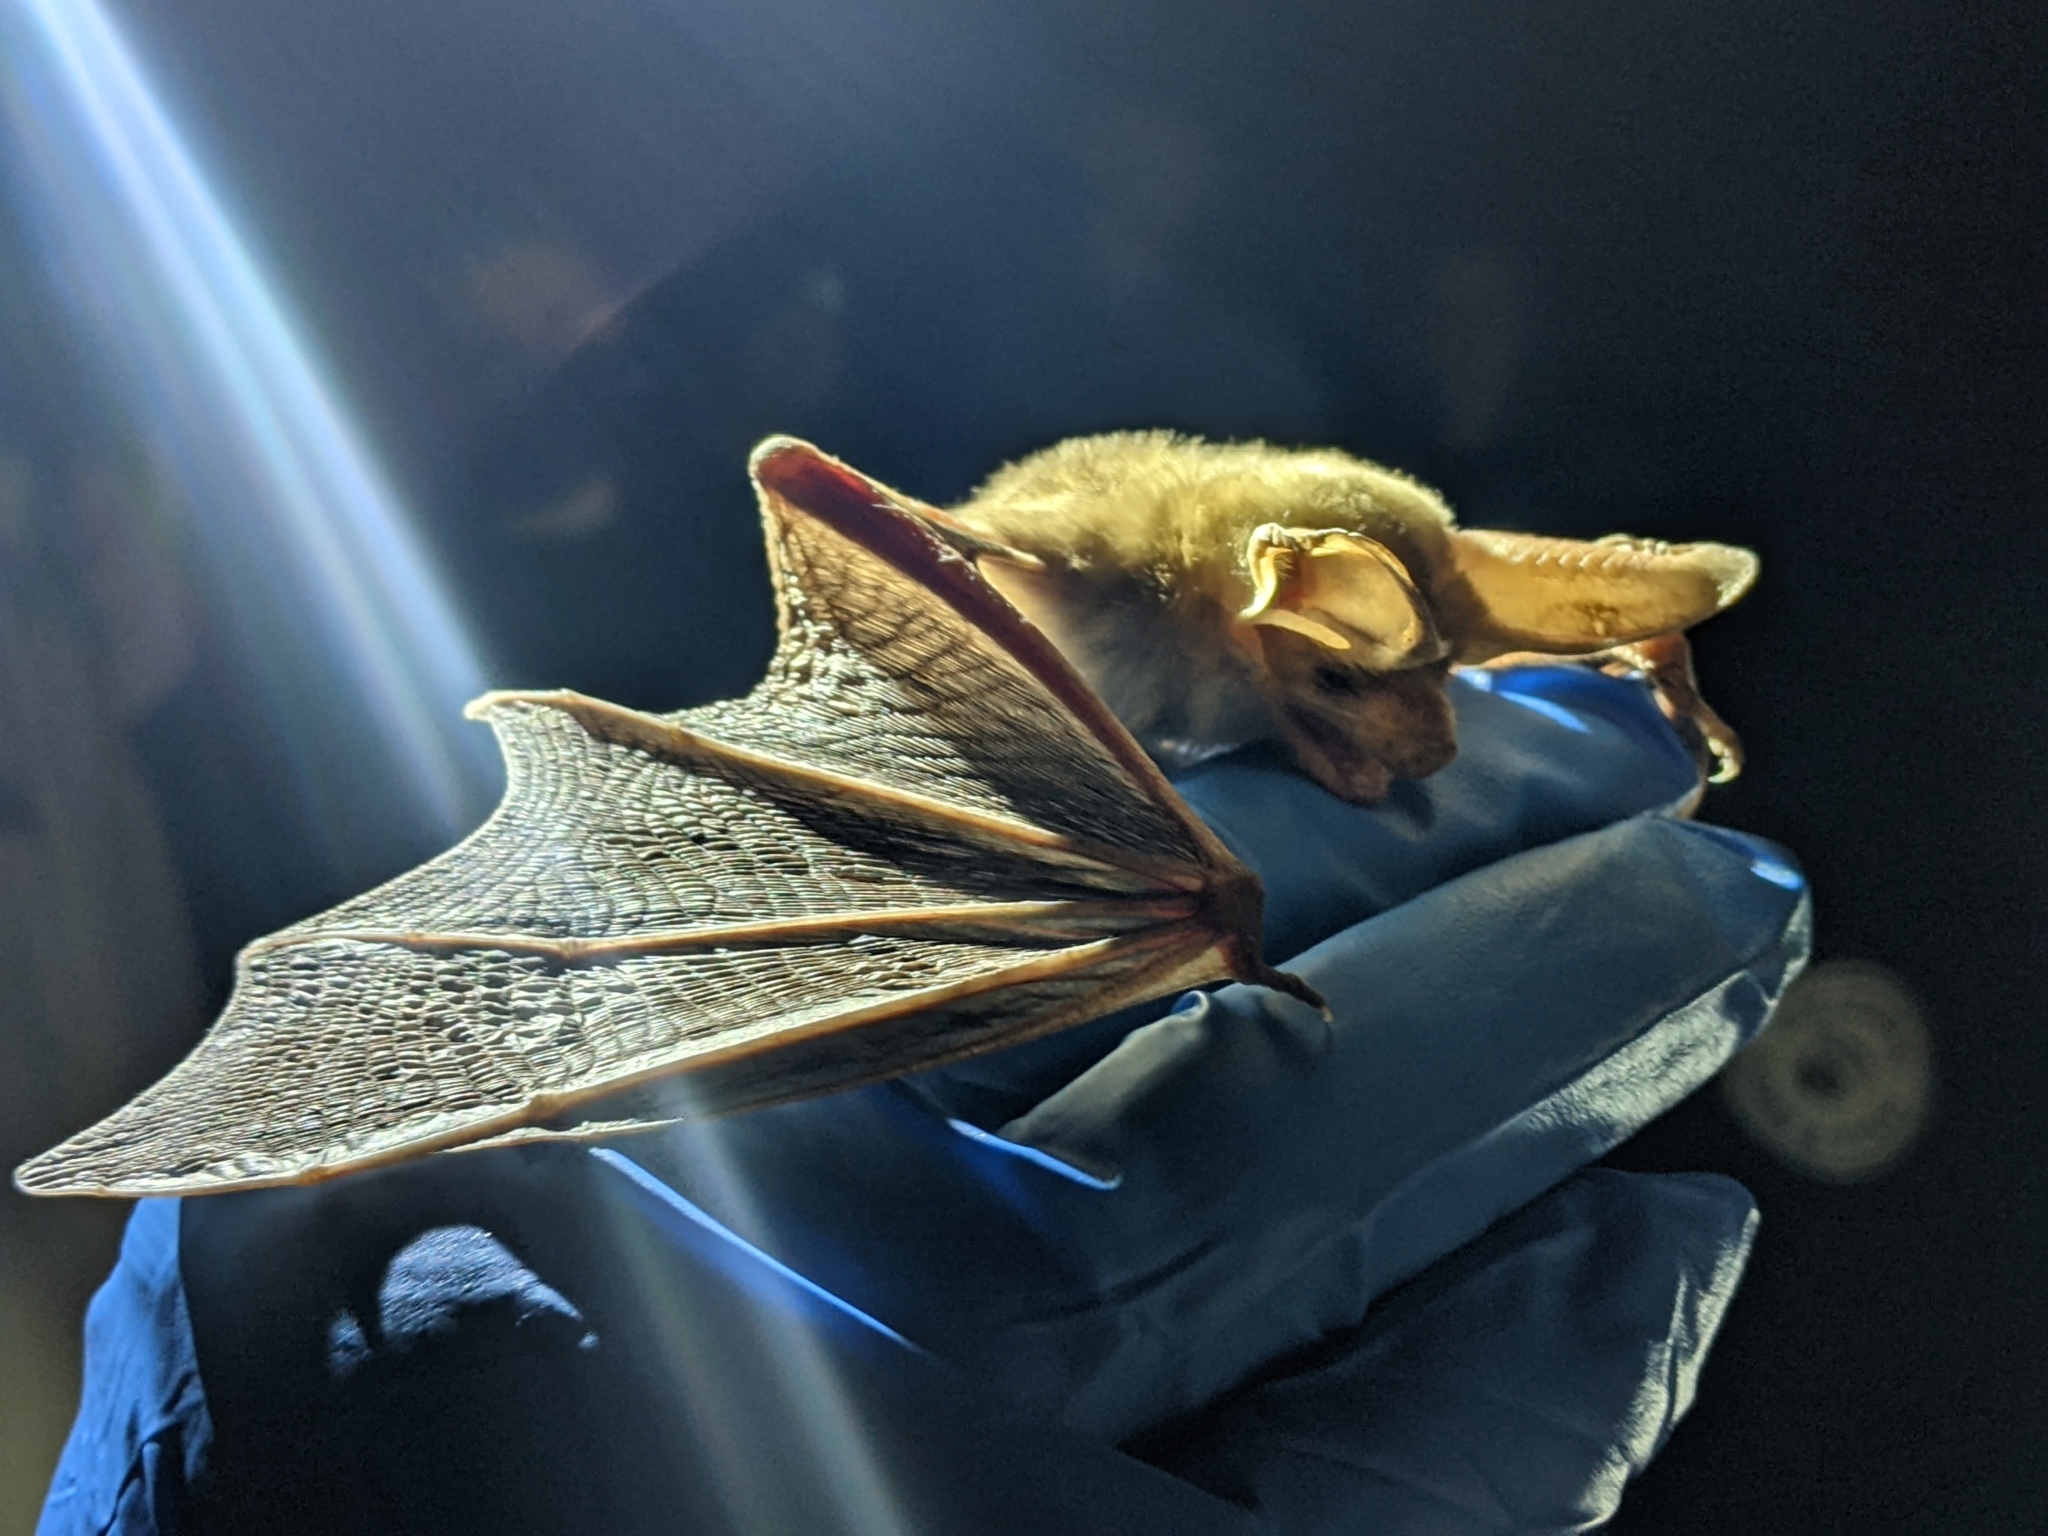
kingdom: Animalia
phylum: Chordata
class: Mammalia
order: Chiroptera
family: Vespertilionidae
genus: Antrozous
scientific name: Antrozous pallidus
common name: Pallid bat
